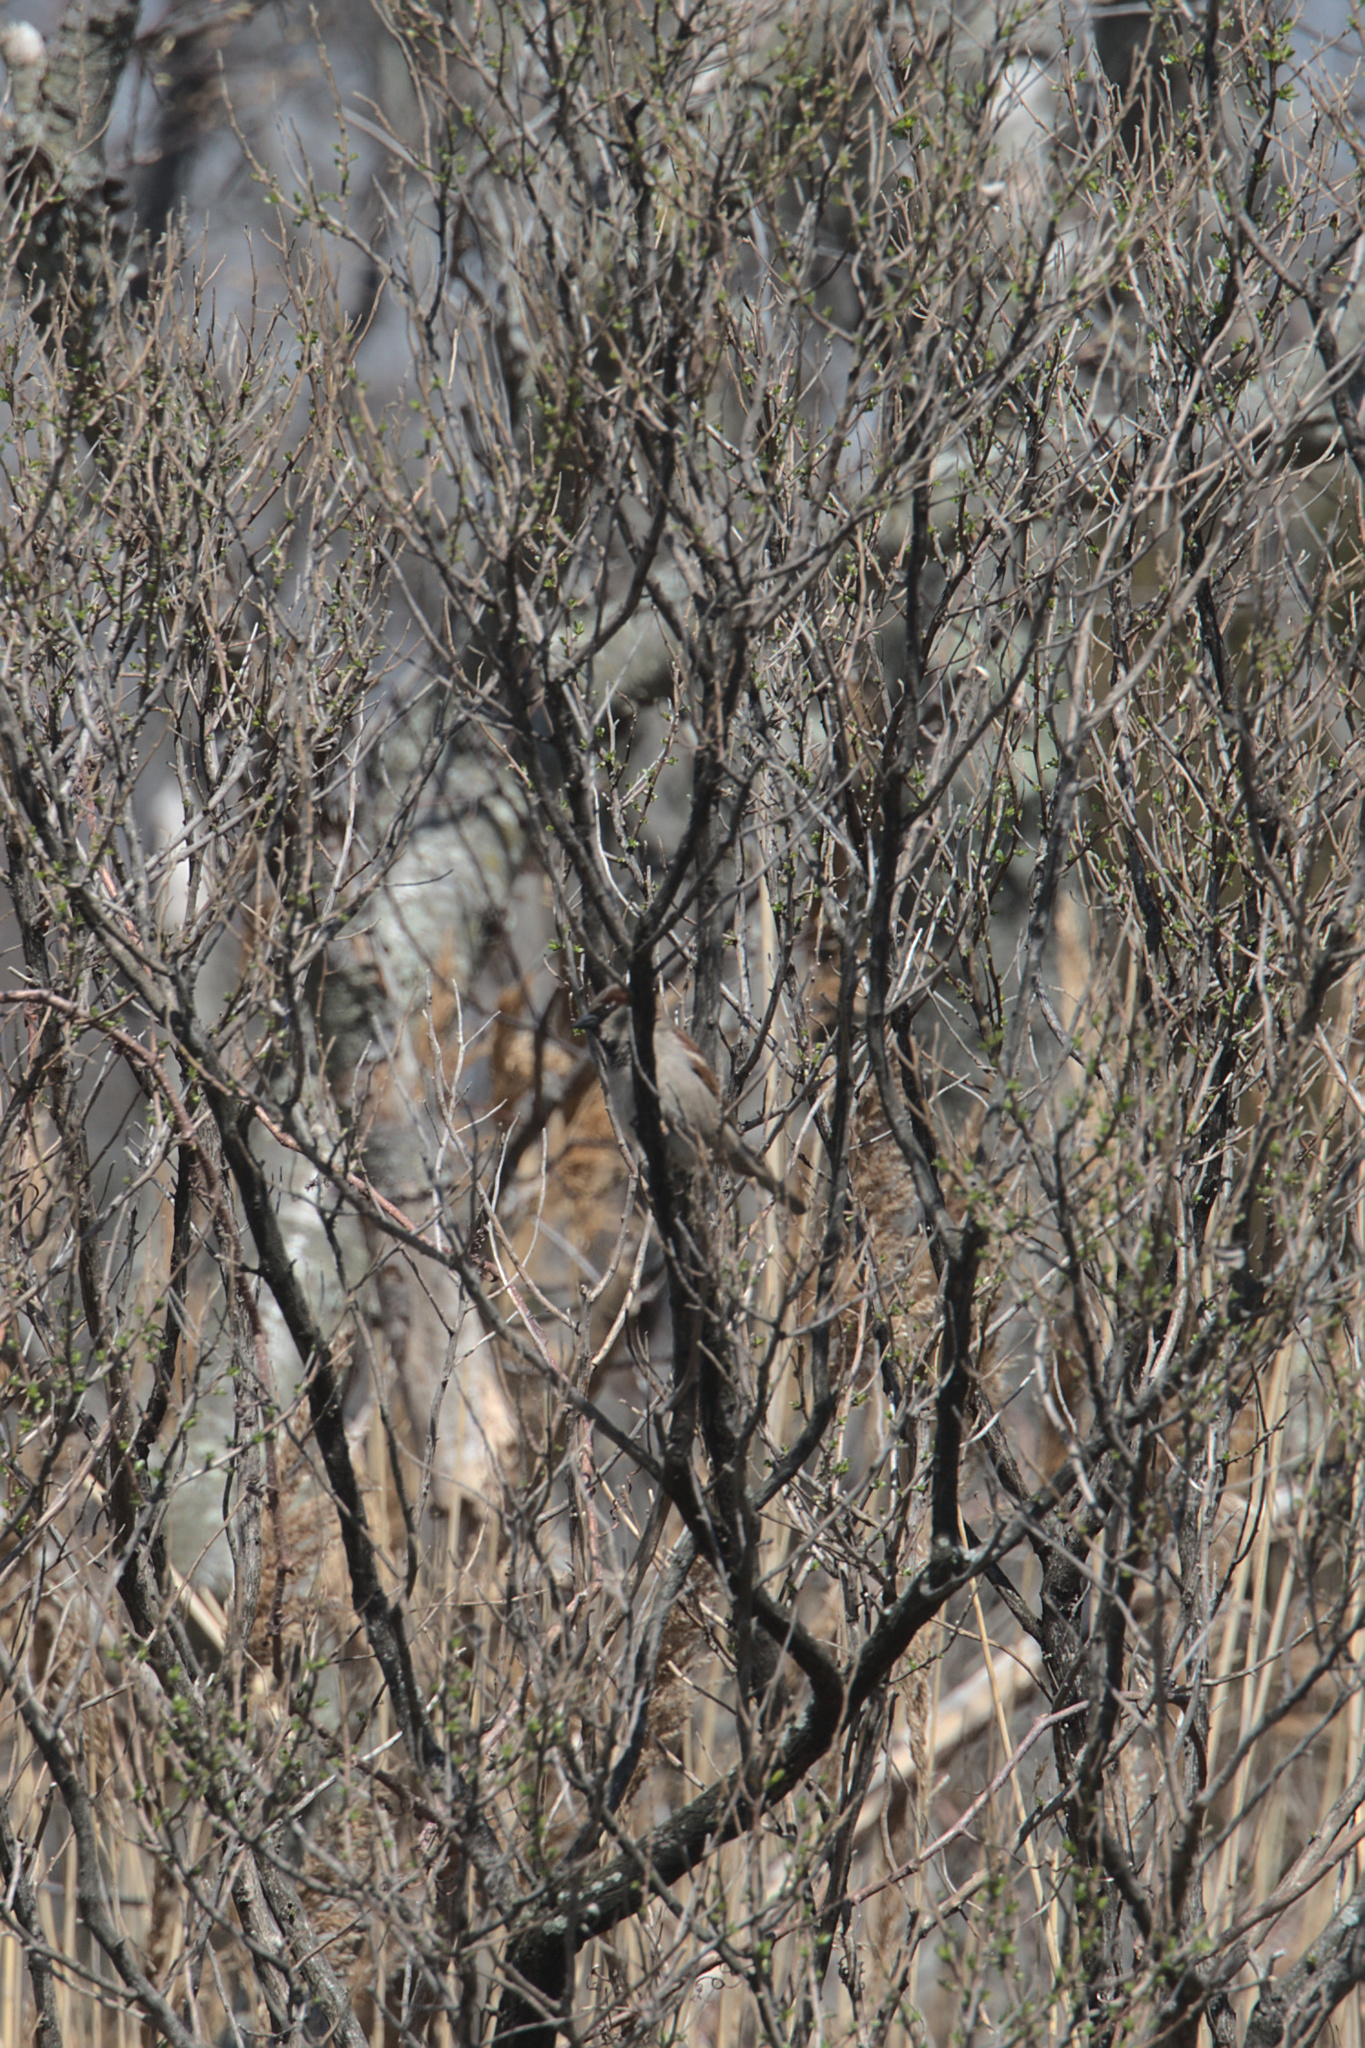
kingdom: Animalia
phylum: Chordata
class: Aves
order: Passeriformes
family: Passeridae
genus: Passer
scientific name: Passer domesticus
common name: House sparrow
